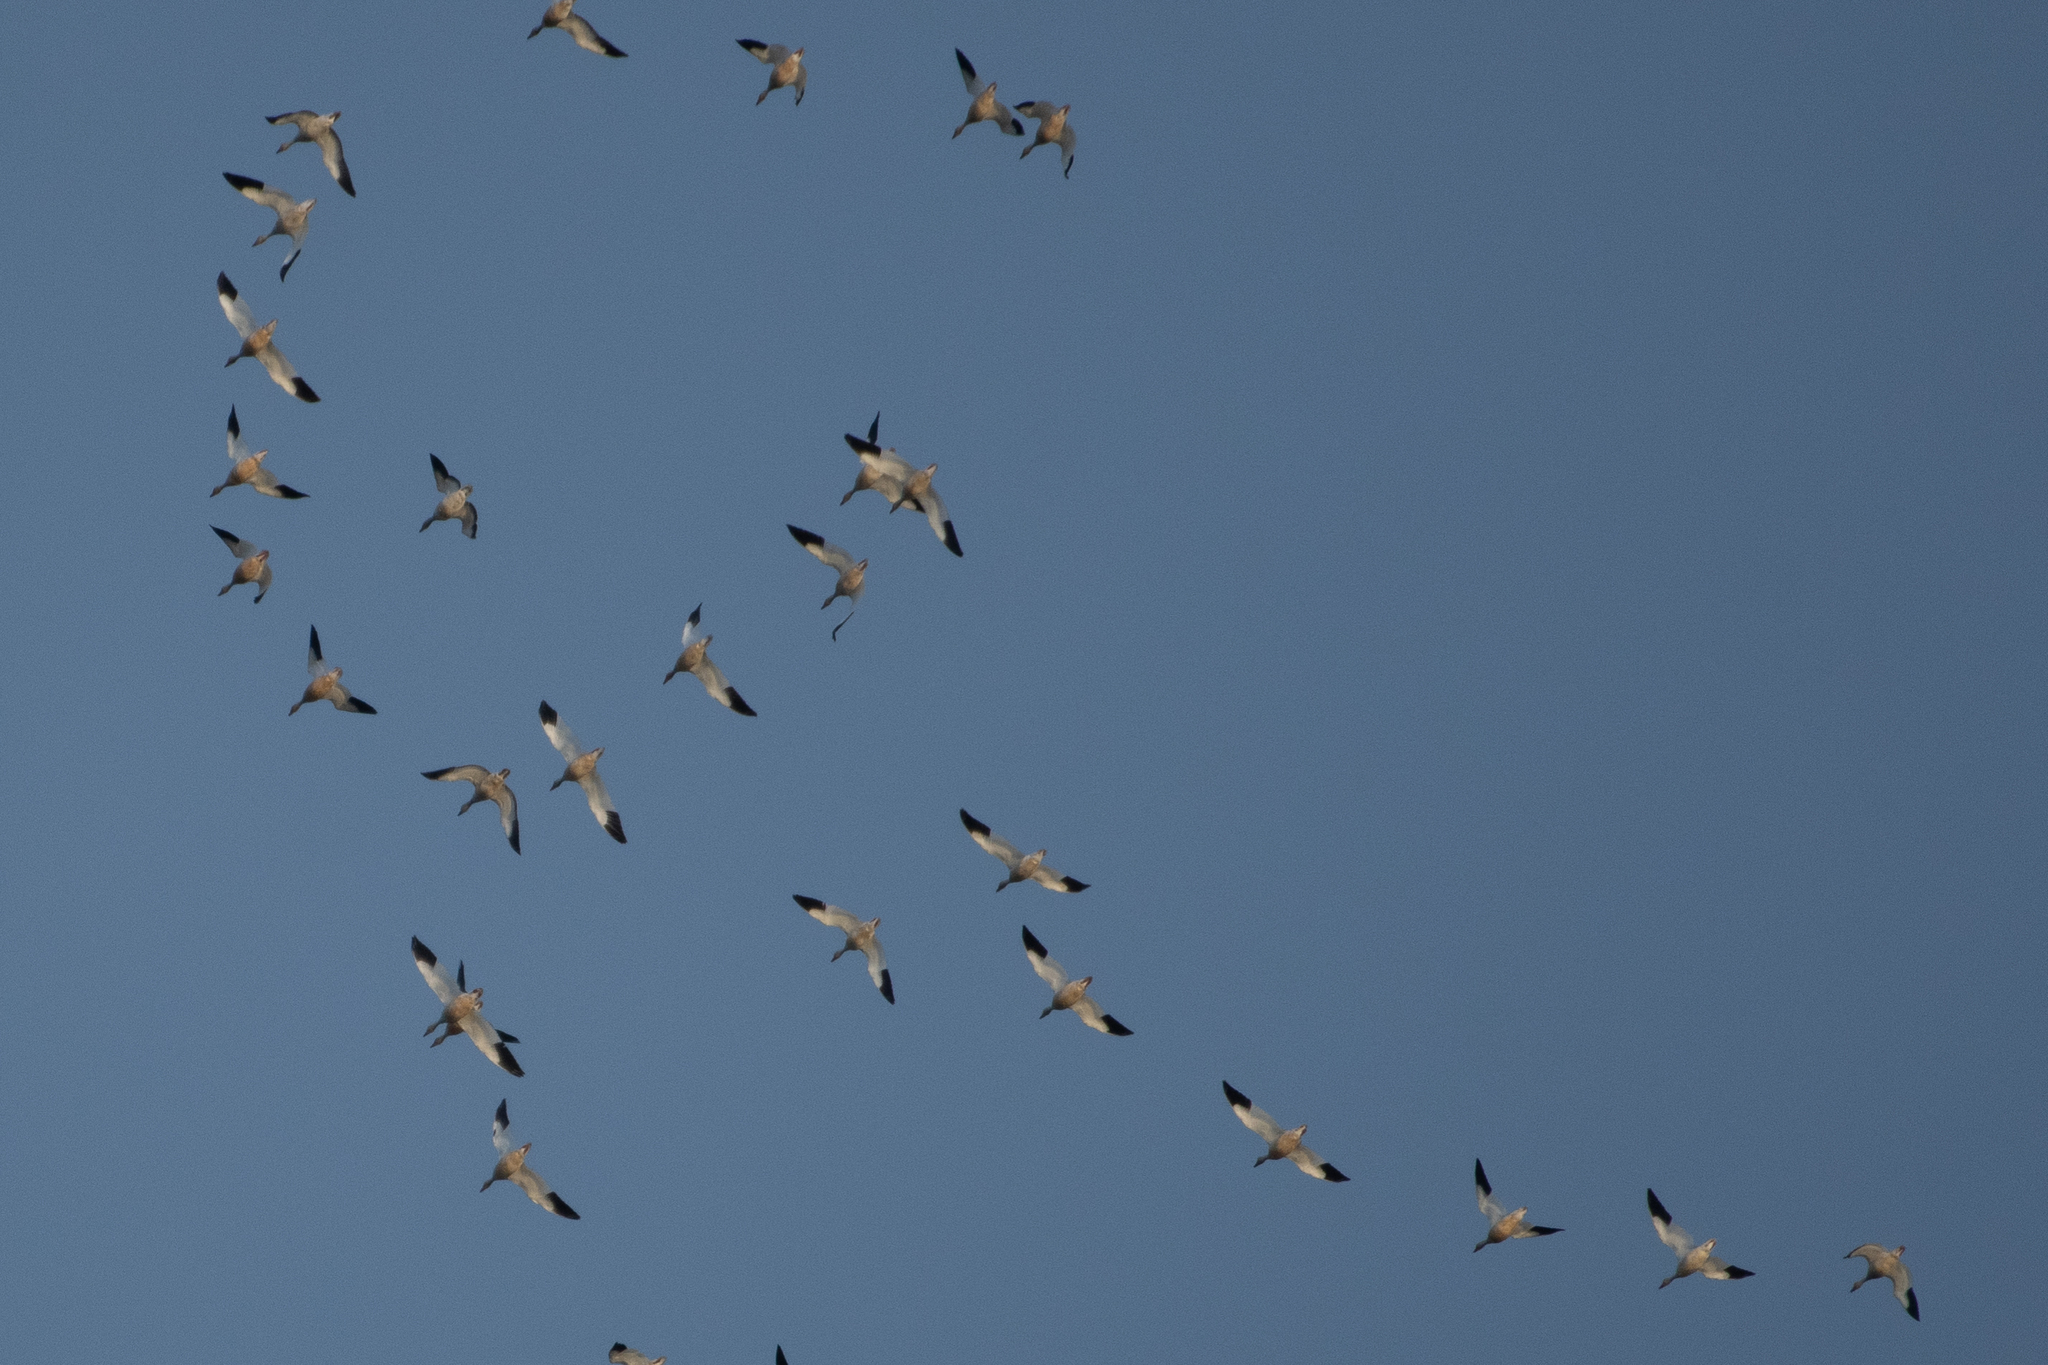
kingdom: Animalia
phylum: Chordata
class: Aves
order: Anseriformes
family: Anatidae
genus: Anser
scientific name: Anser caerulescens
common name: Snow goose
